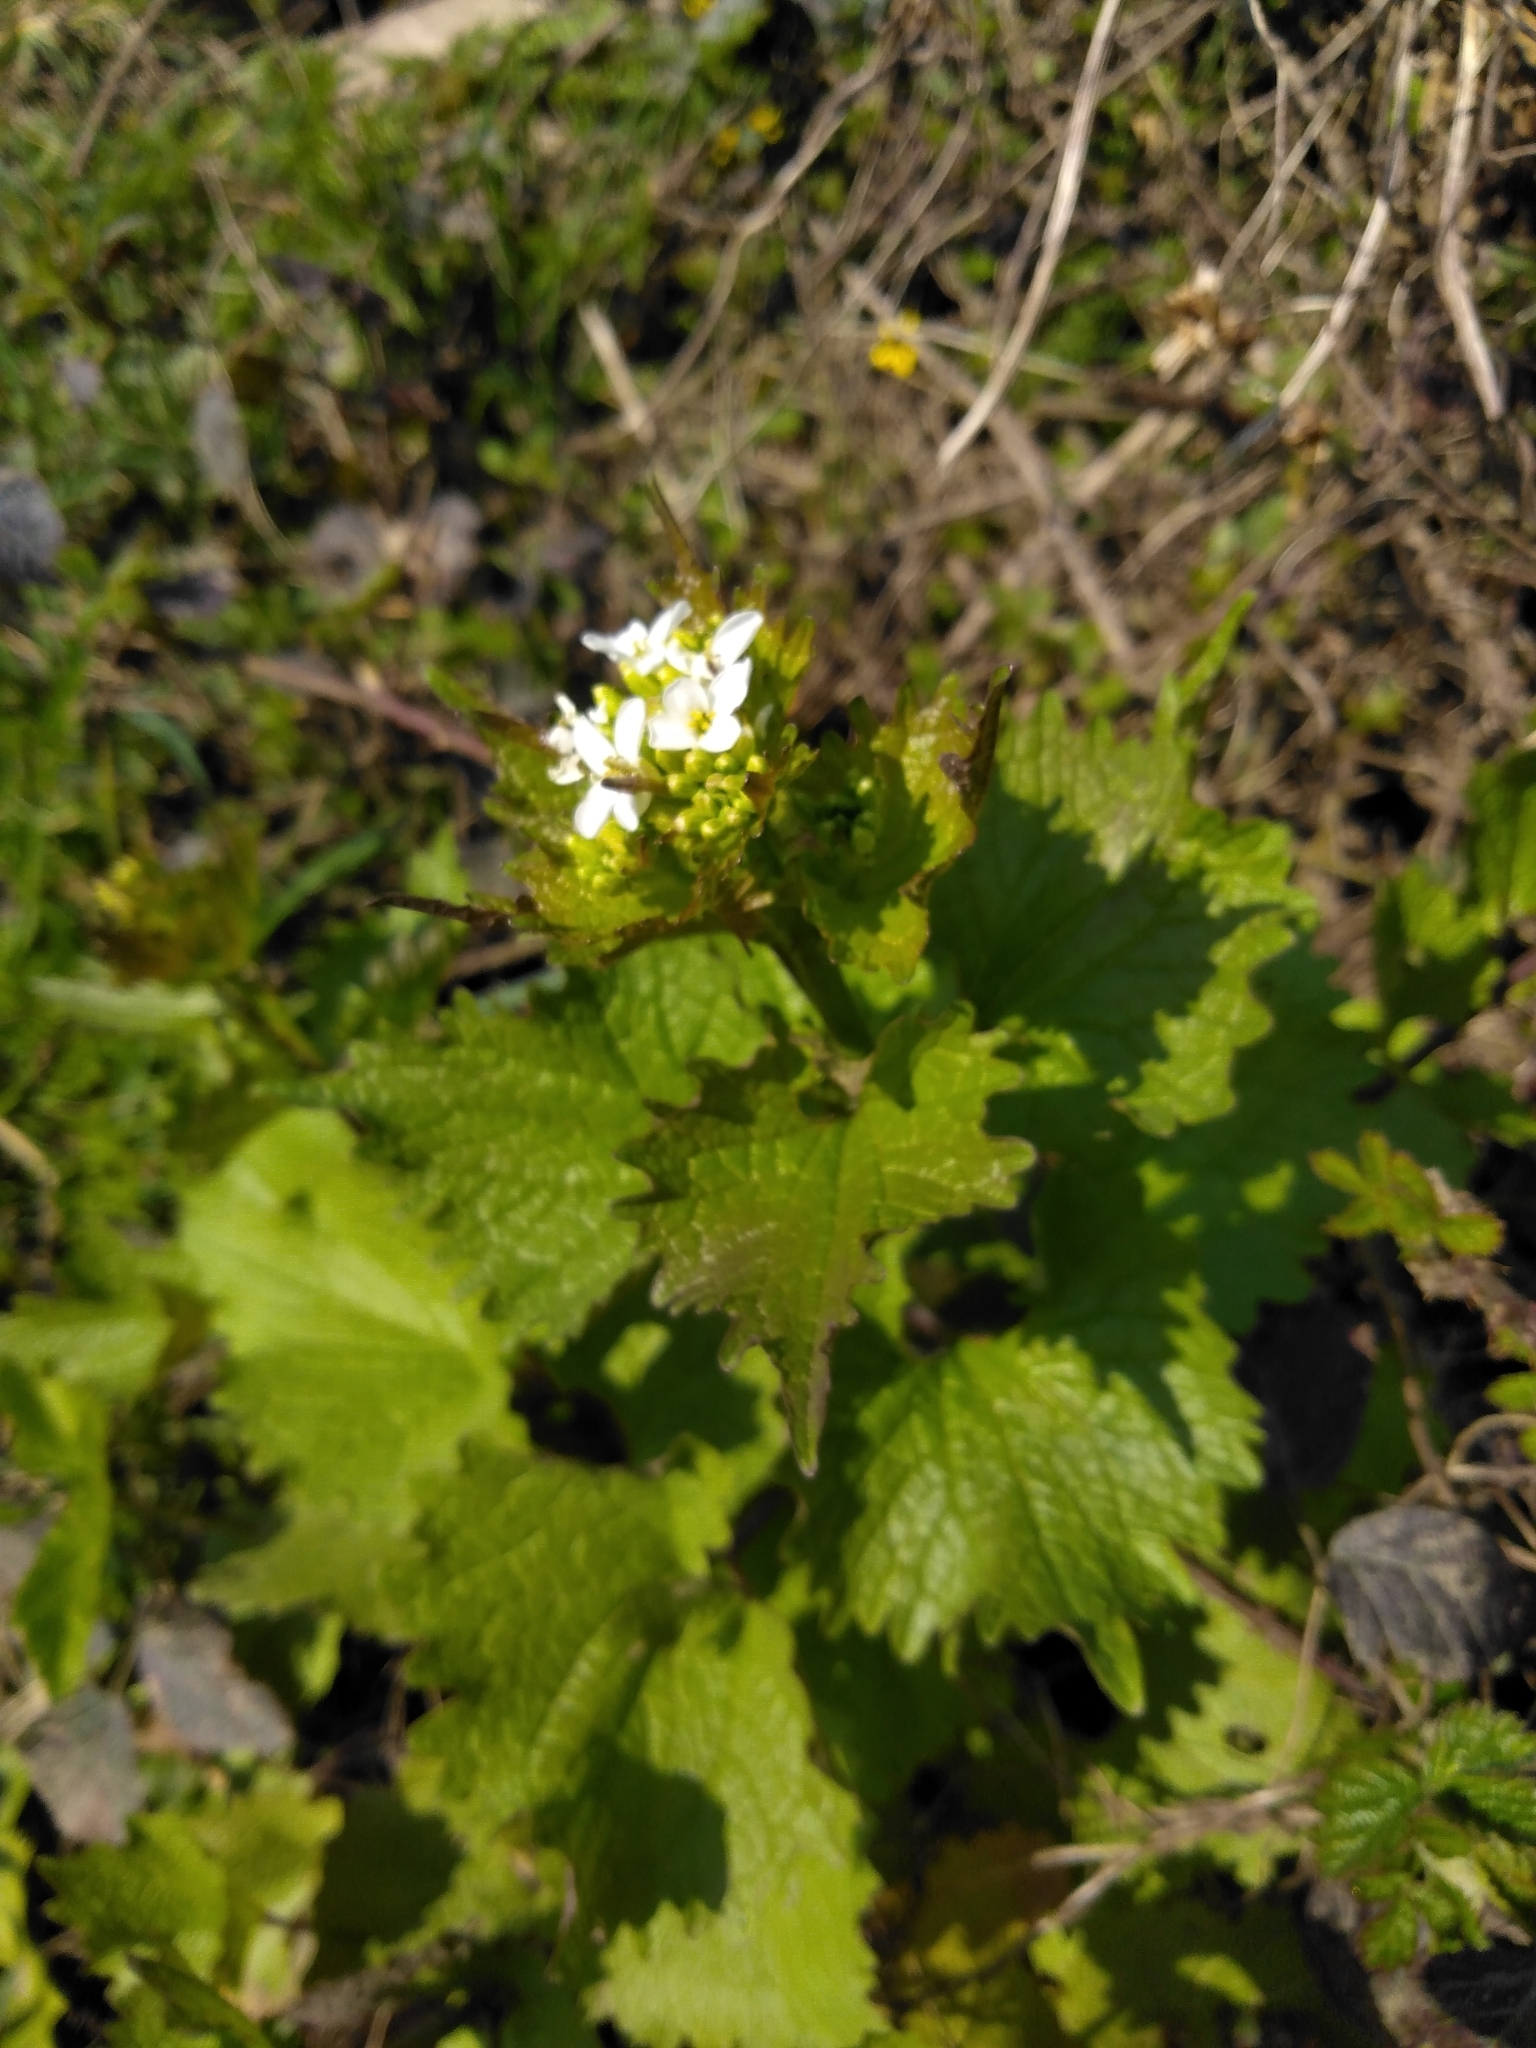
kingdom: Plantae
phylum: Tracheophyta
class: Magnoliopsida
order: Brassicales
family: Brassicaceae
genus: Alliaria
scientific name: Alliaria petiolata
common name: Garlic mustard
